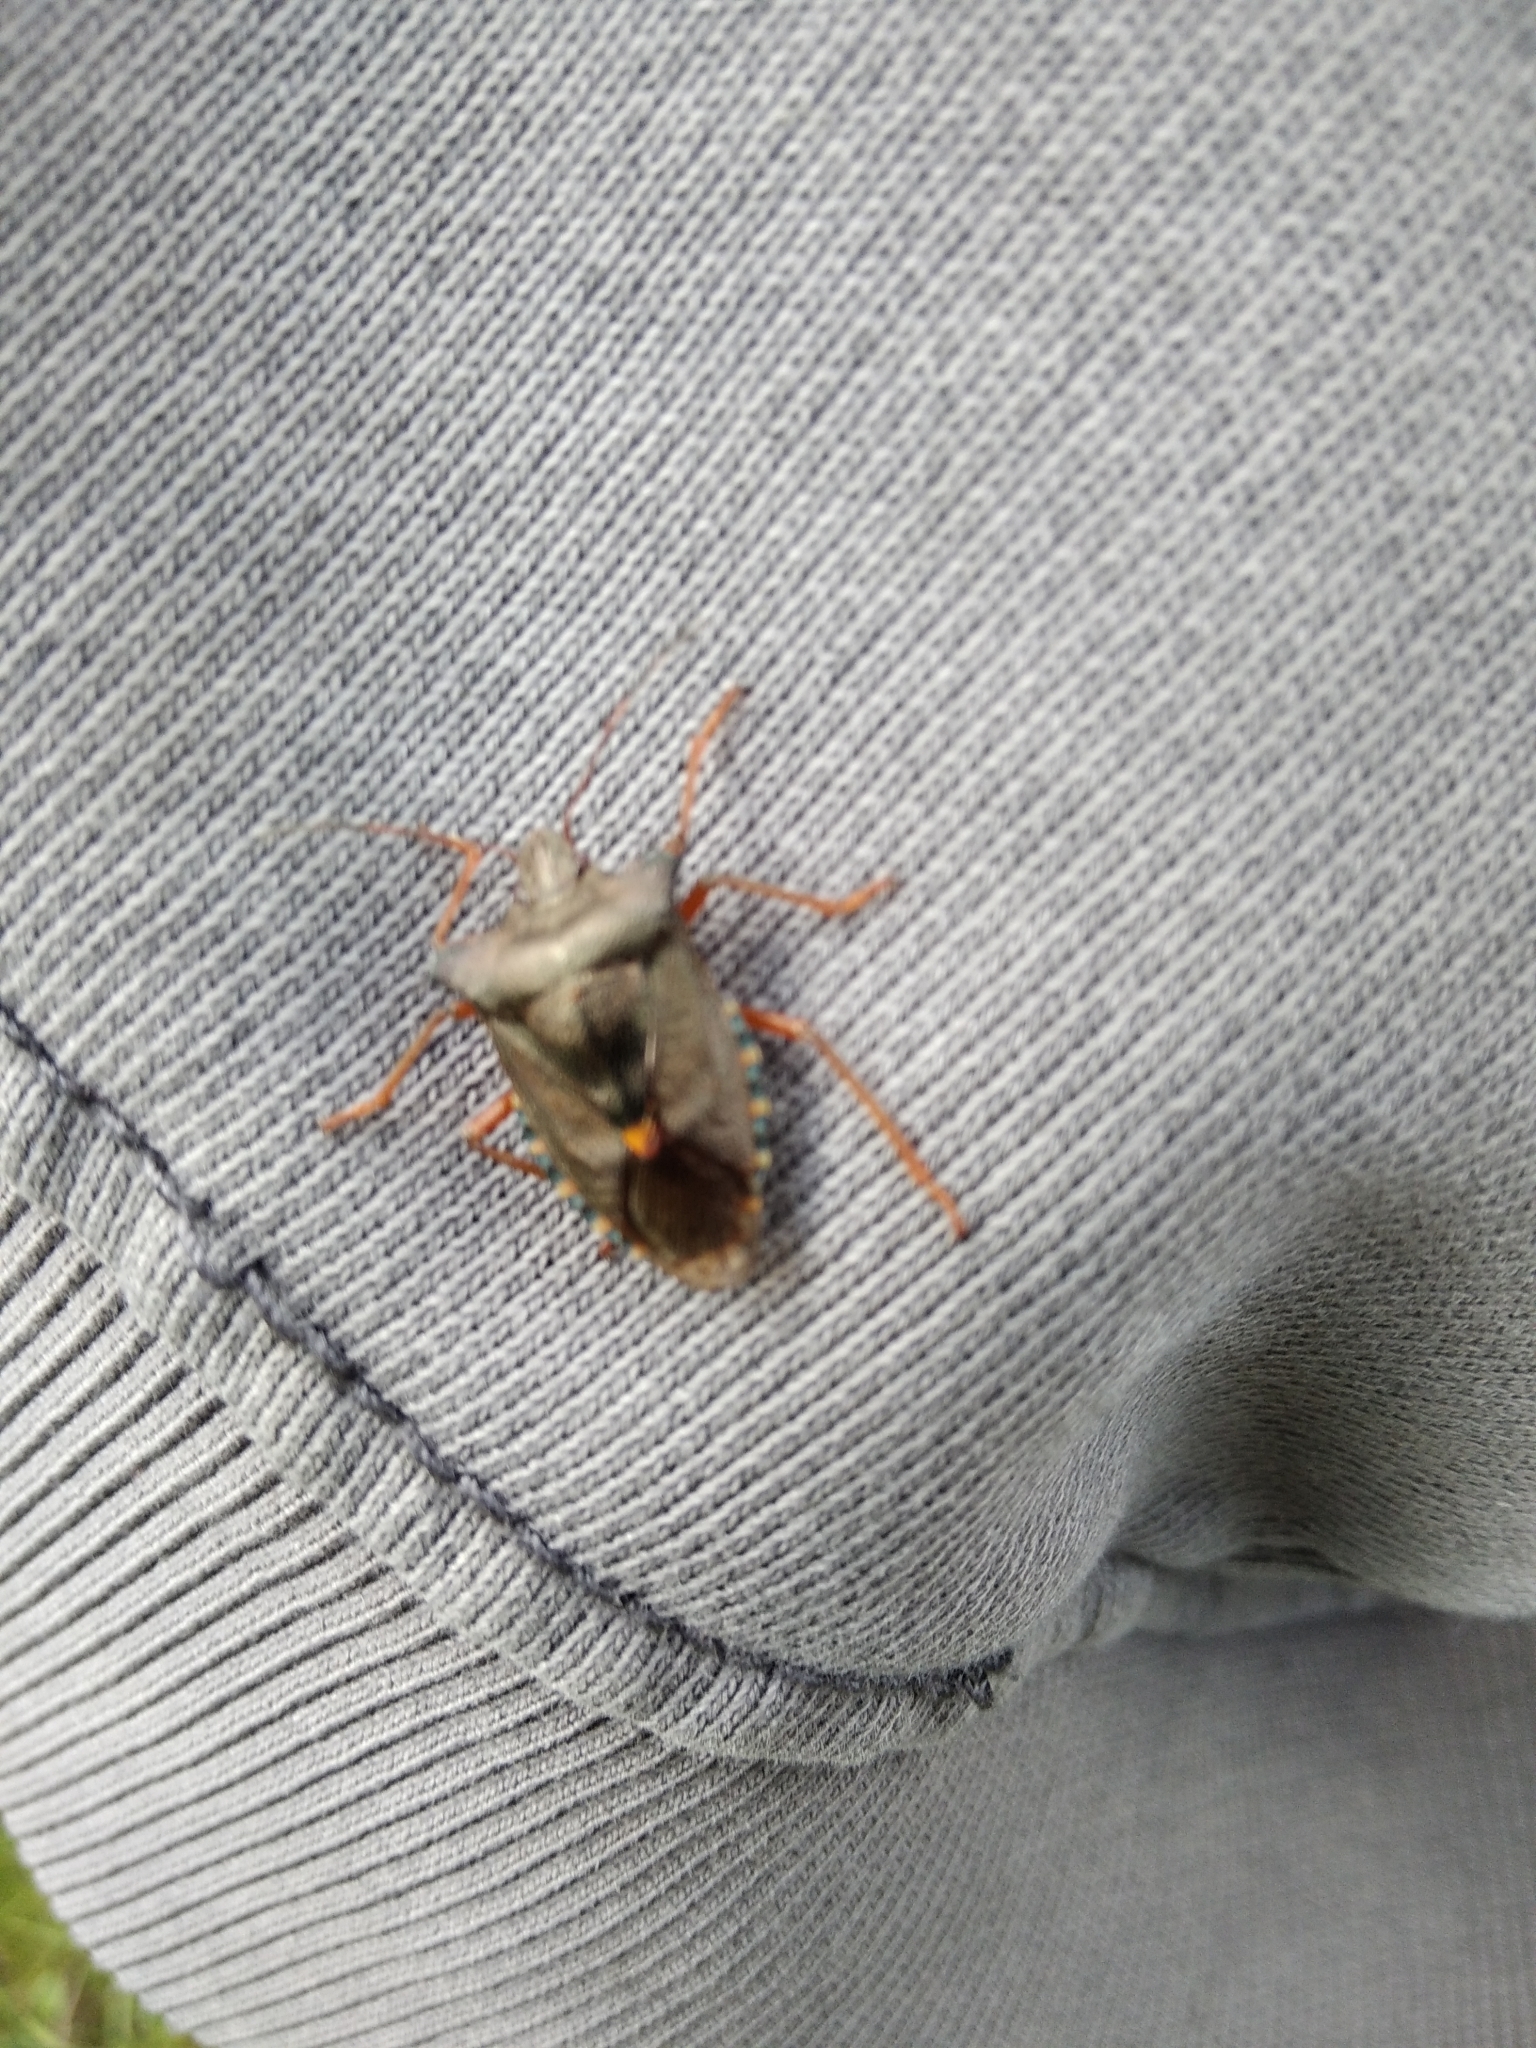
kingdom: Animalia
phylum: Arthropoda
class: Insecta
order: Hemiptera
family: Pentatomidae
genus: Pentatoma
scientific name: Pentatoma rufipes
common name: Forest bug
